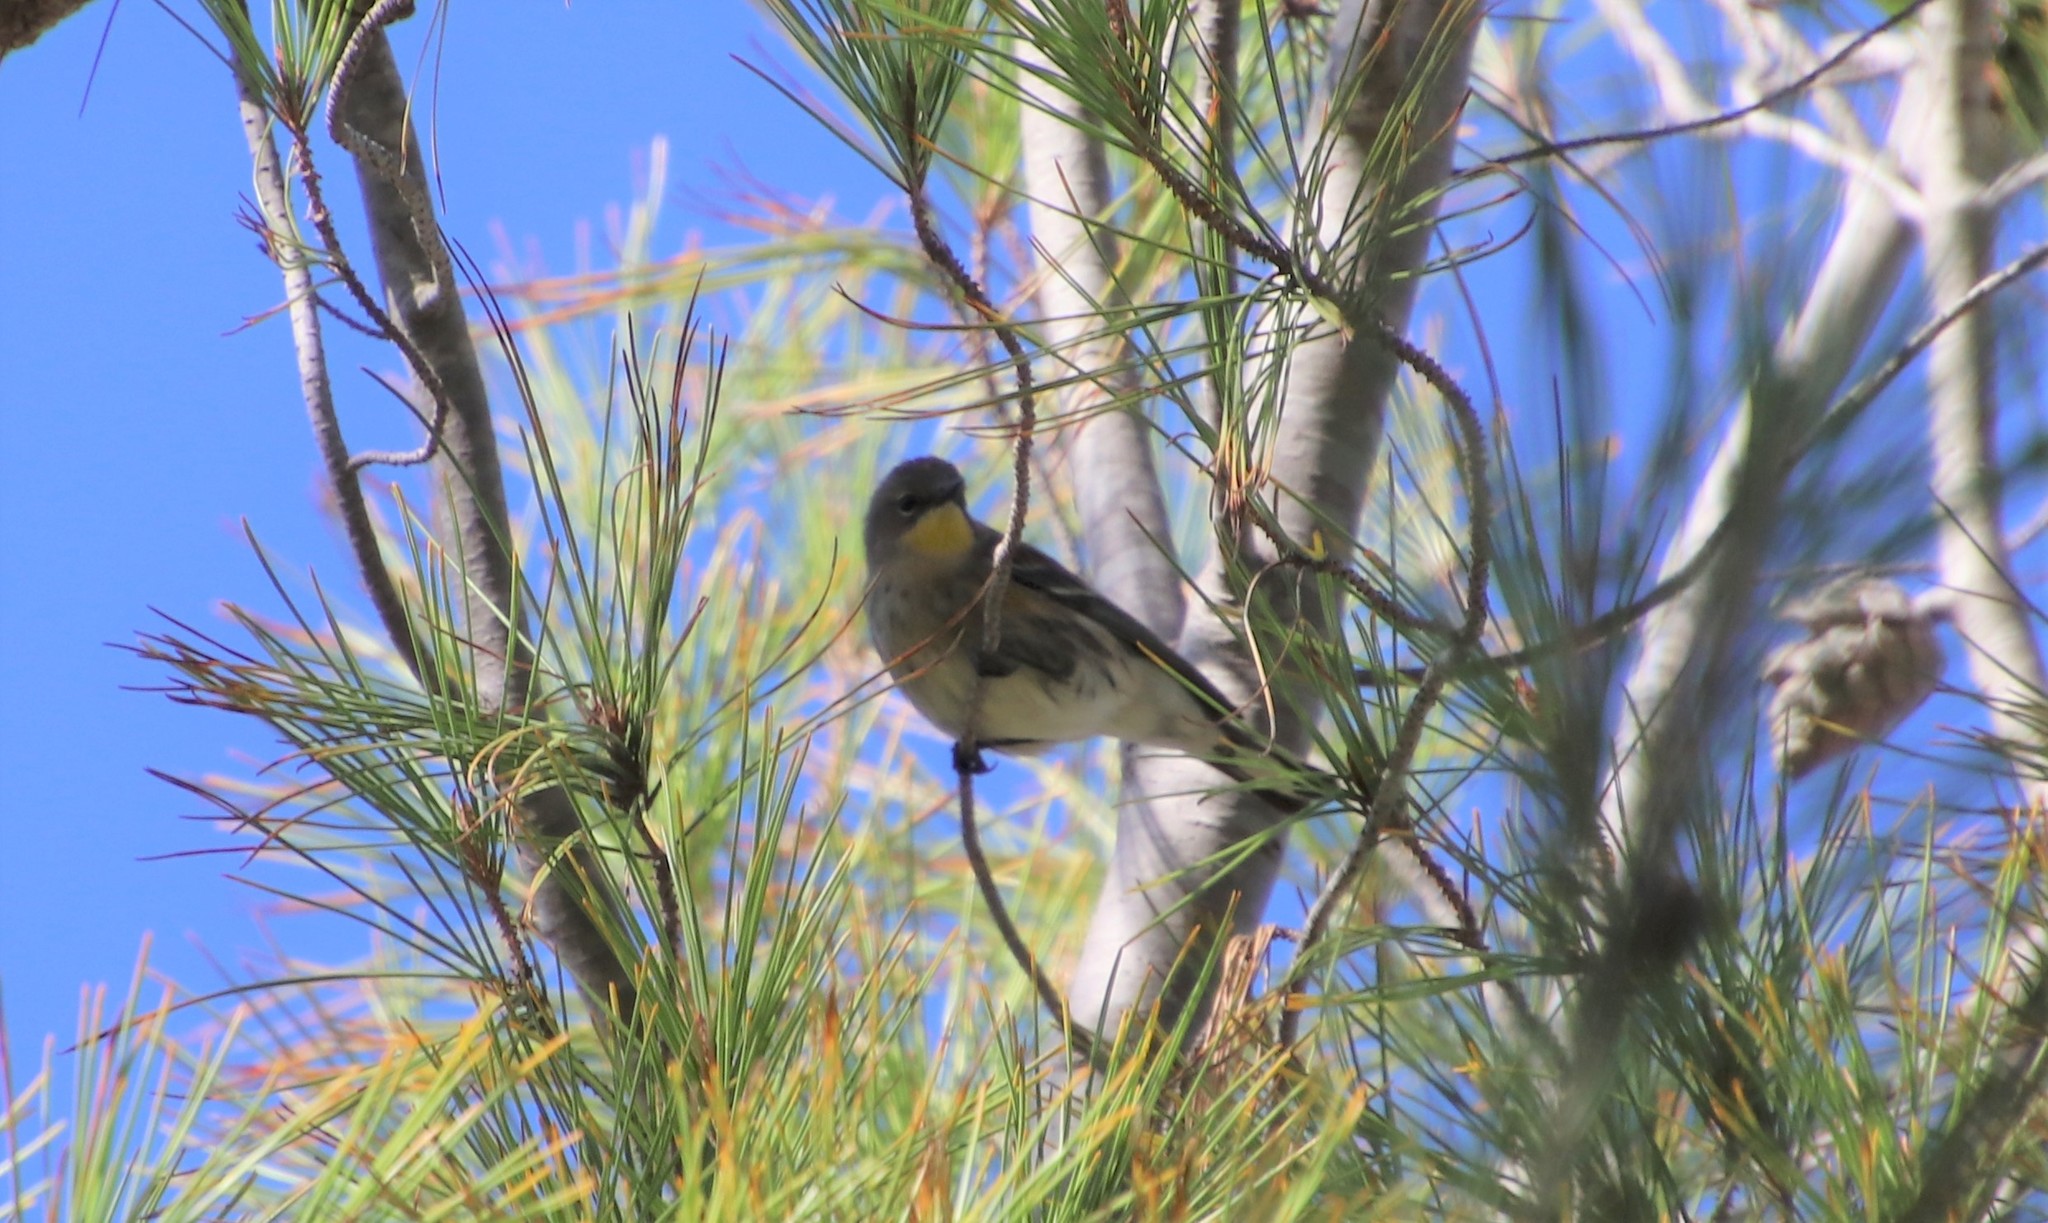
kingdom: Animalia
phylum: Chordata
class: Aves
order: Passeriformes
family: Parulidae
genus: Setophaga
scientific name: Setophaga auduboni
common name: Audubon's warbler
